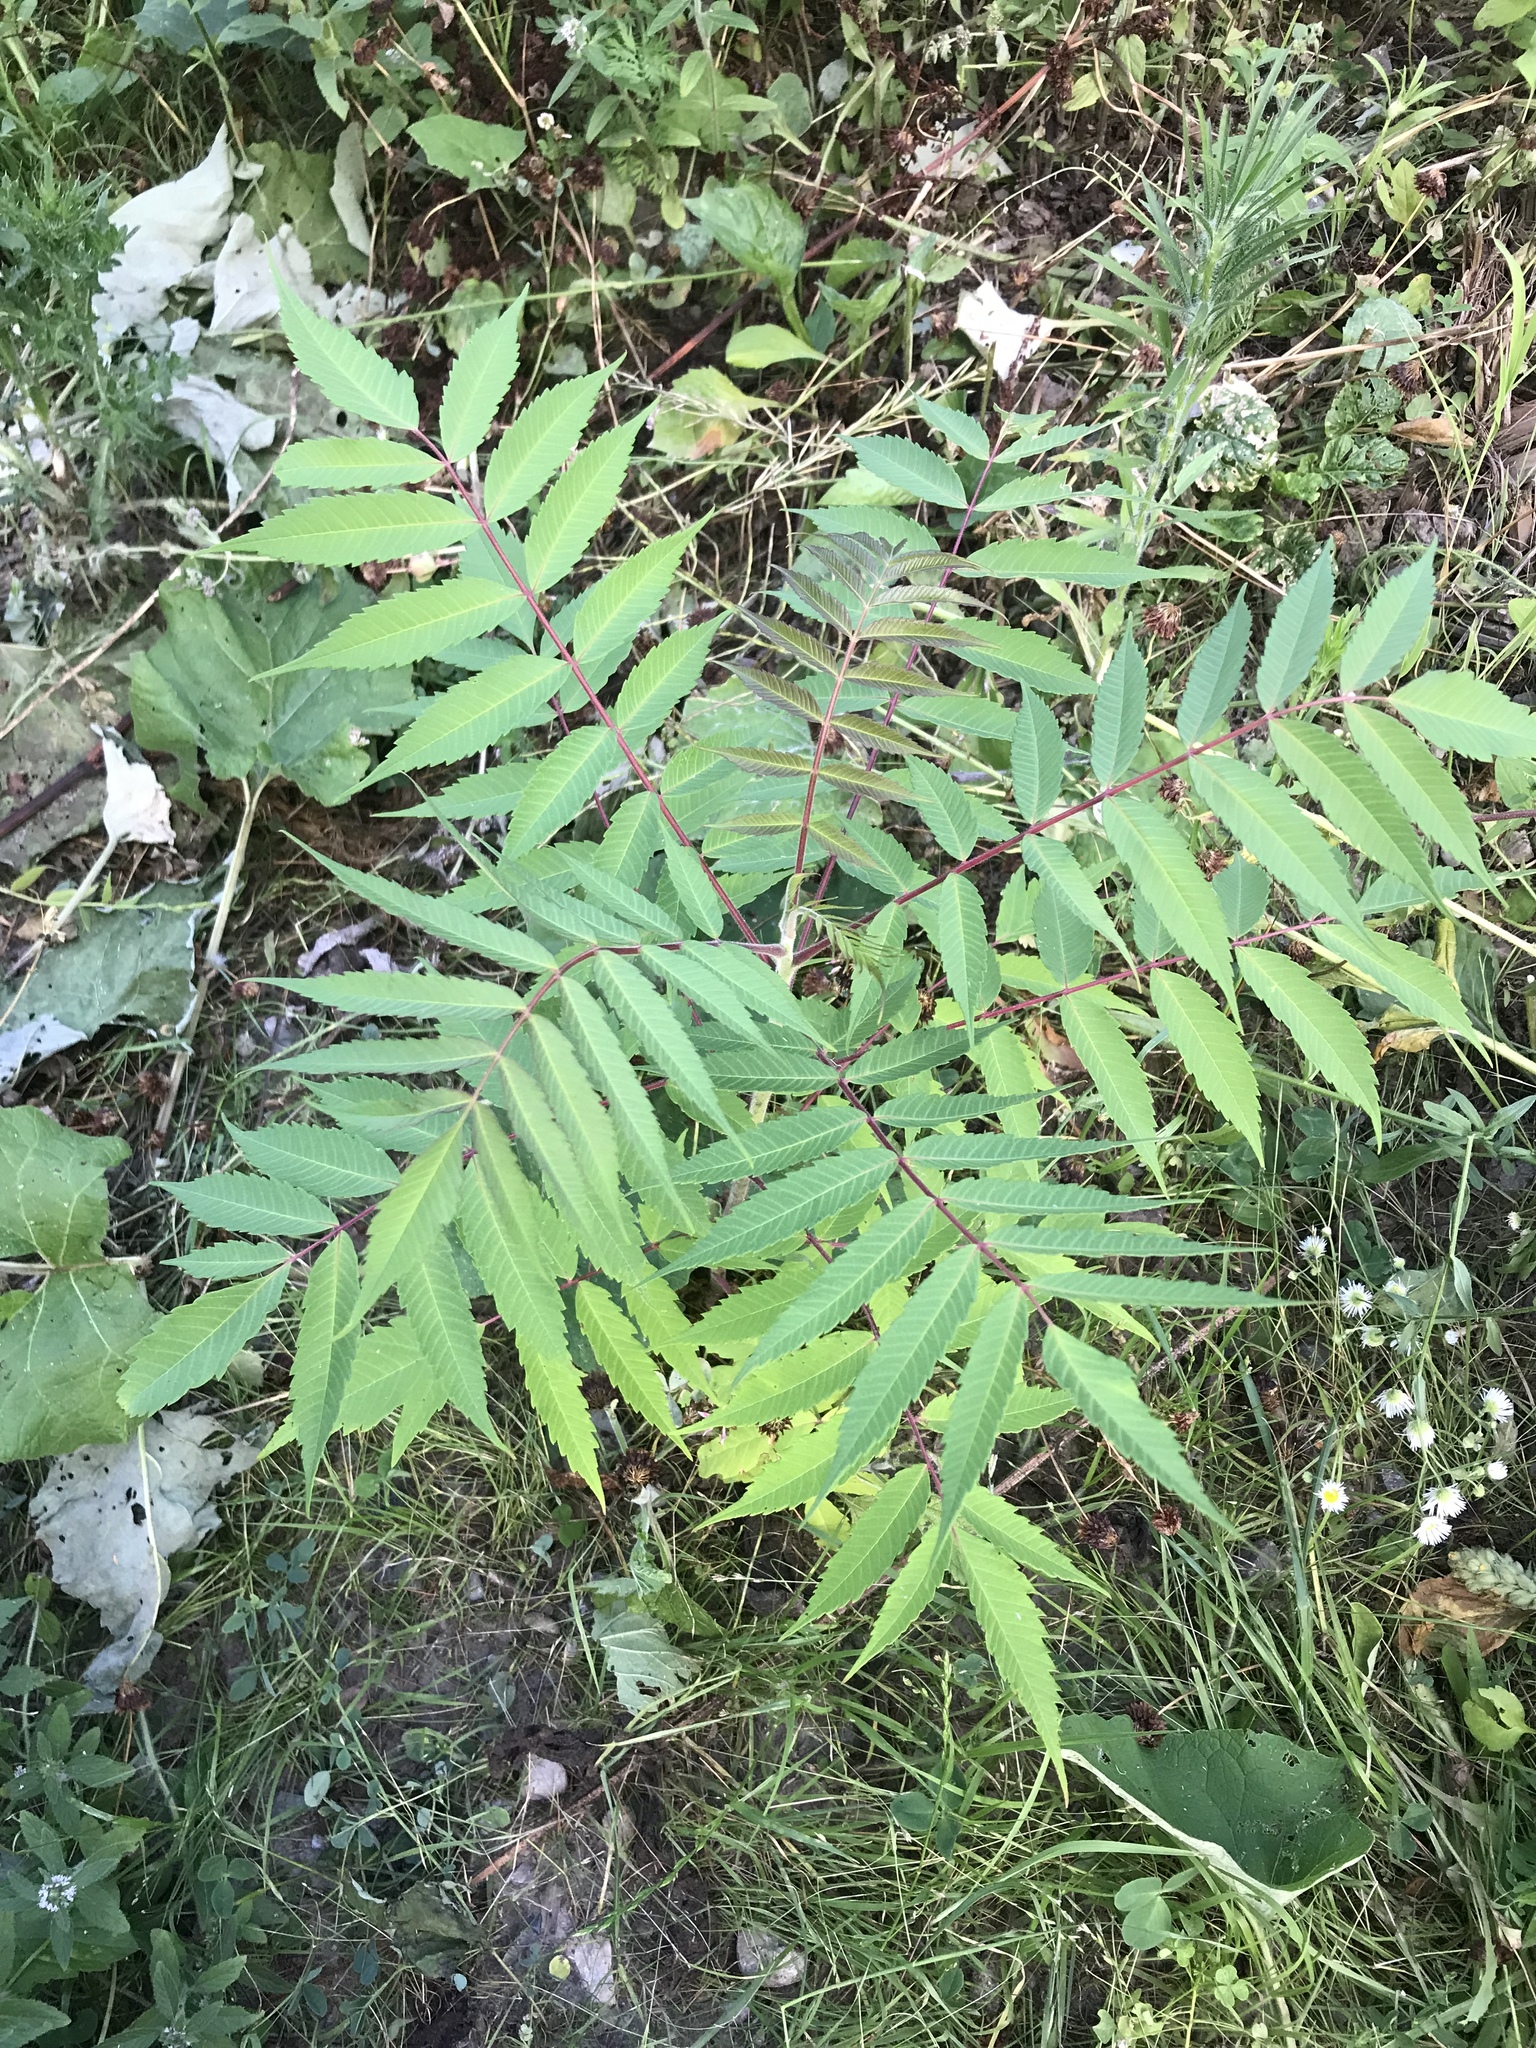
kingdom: Plantae
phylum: Tracheophyta
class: Magnoliopsida
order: Sapindales
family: Anacardiaceae
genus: Rhus
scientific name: Rhus typhina
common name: Staghorn sumac
